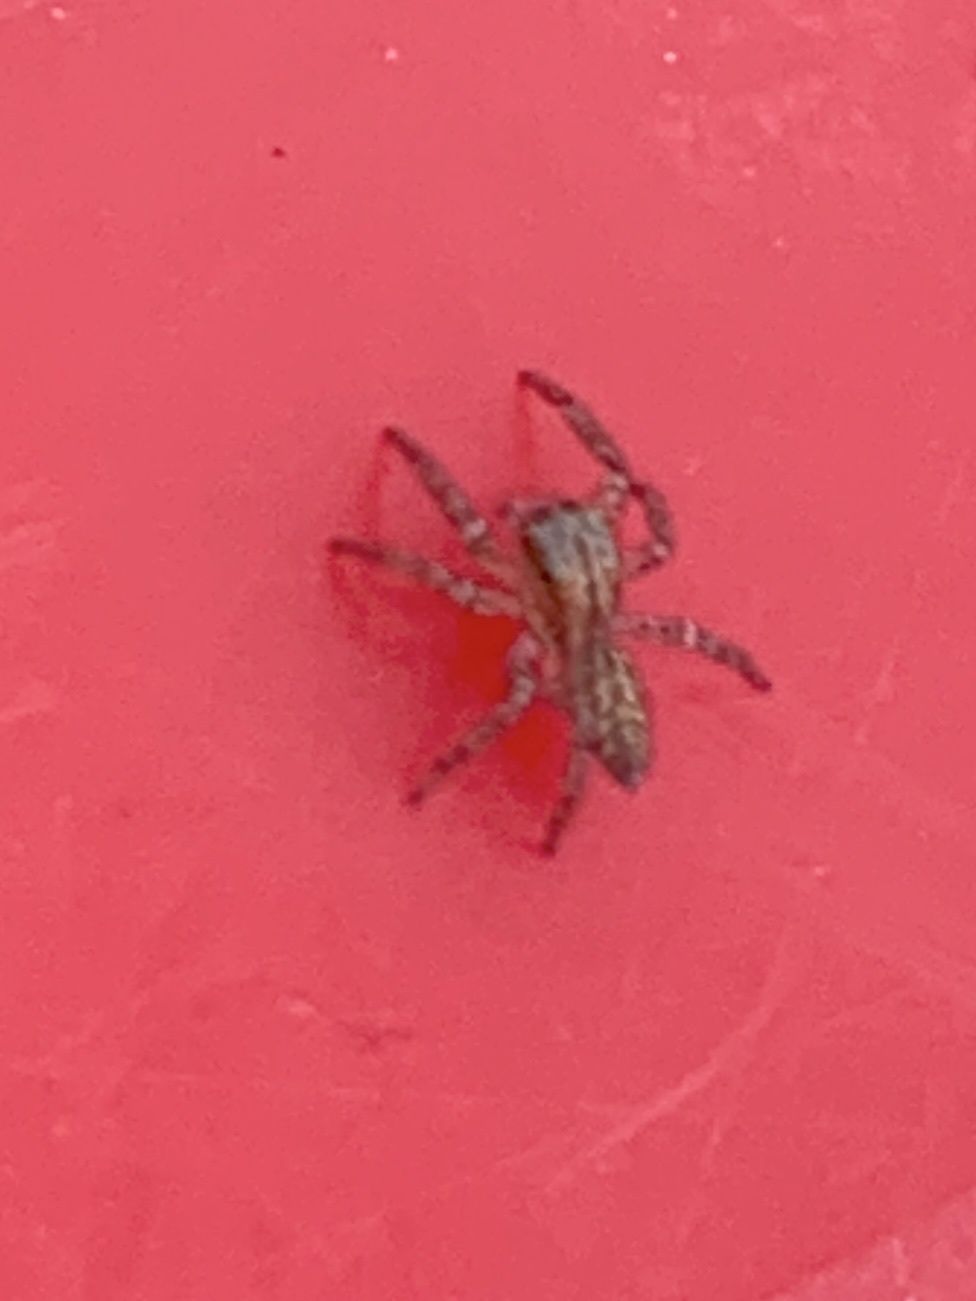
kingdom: Animalia
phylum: Arthropoda
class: Arachnida
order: Araneae
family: Salticidae
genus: Maevia
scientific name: Maevia inclemens
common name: Dimorphic jumper
